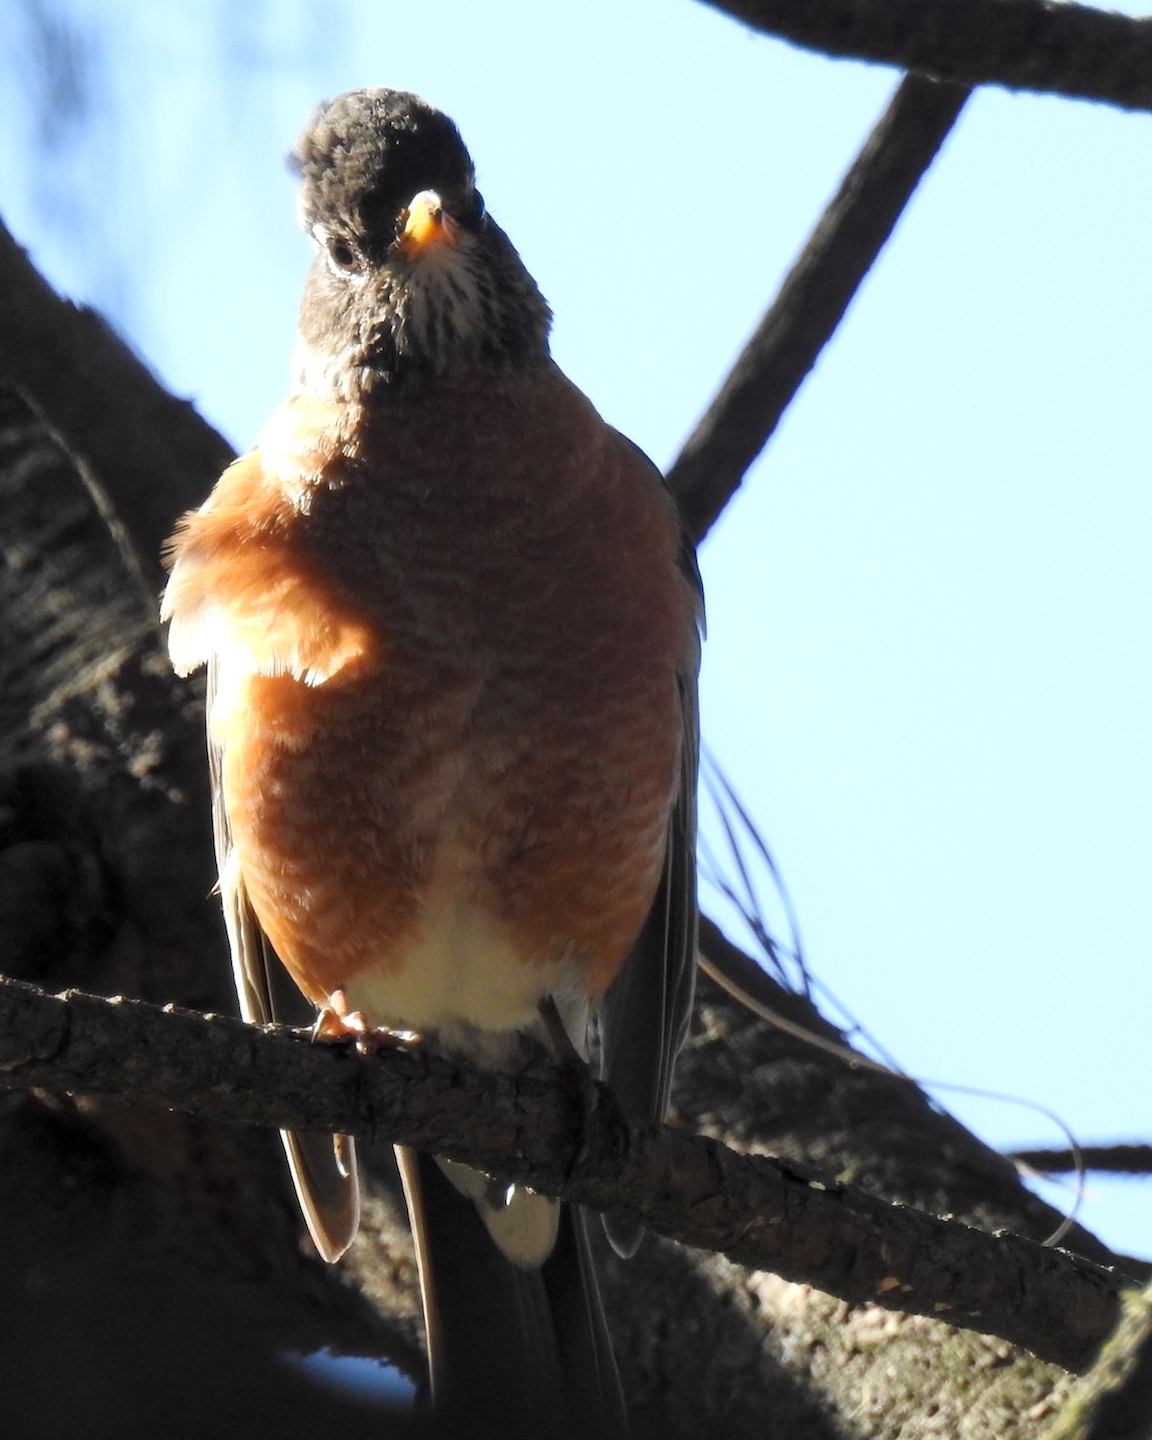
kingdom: Animalia
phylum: Chordata
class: Aves
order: Passeriformes
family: Turdidae
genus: Turdus
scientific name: Turdus migratorius
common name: American robin
